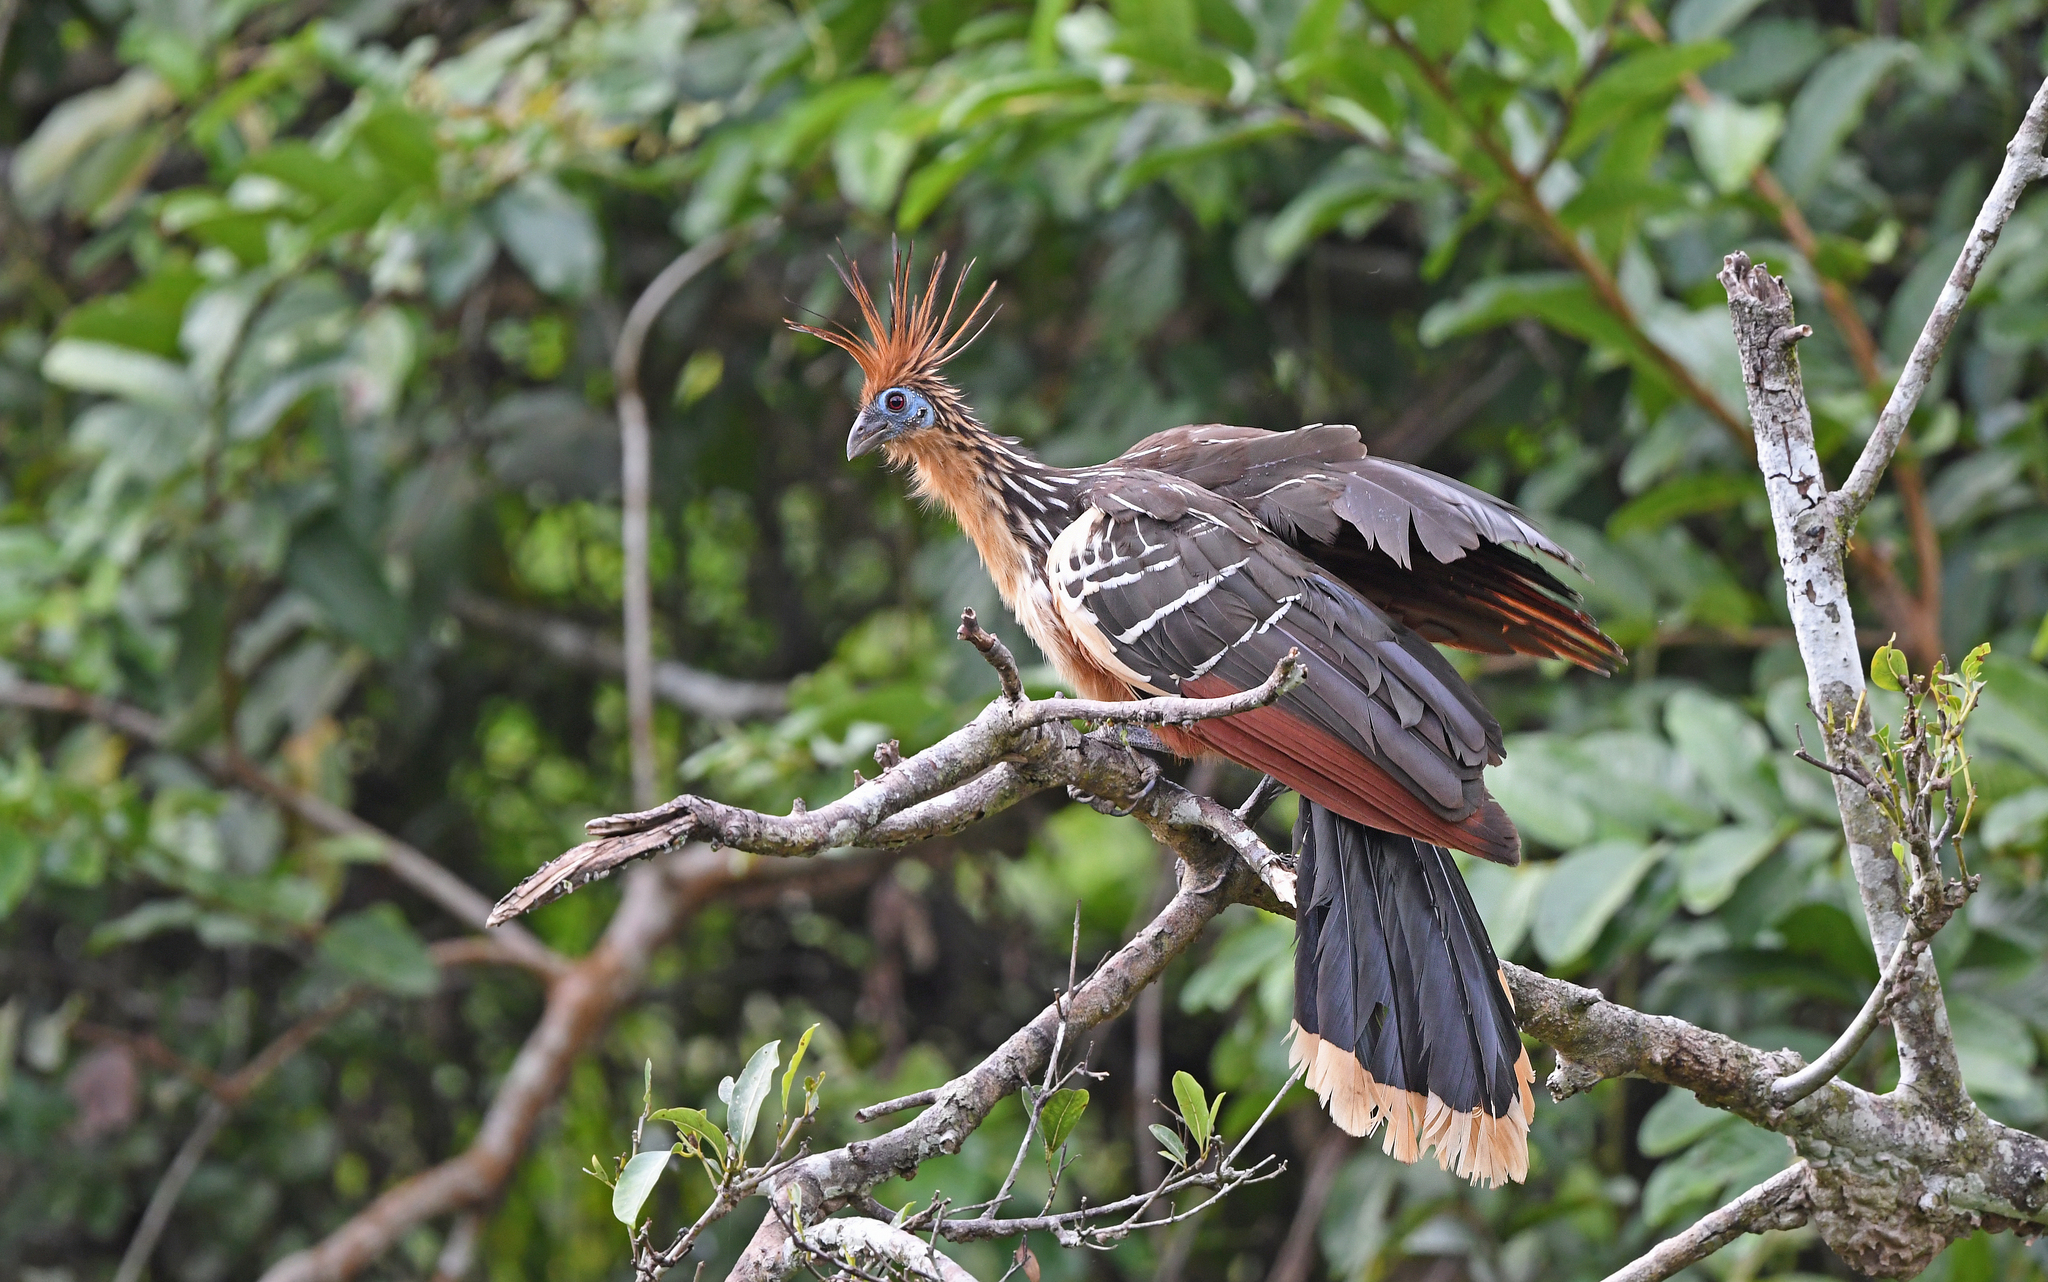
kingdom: Animalia
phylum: Chordata
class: Aves
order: Opisthocomiformes
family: Opisthocomidae
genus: Opisthocomus
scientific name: Opisthocomus hoazin
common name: Hoatzin
